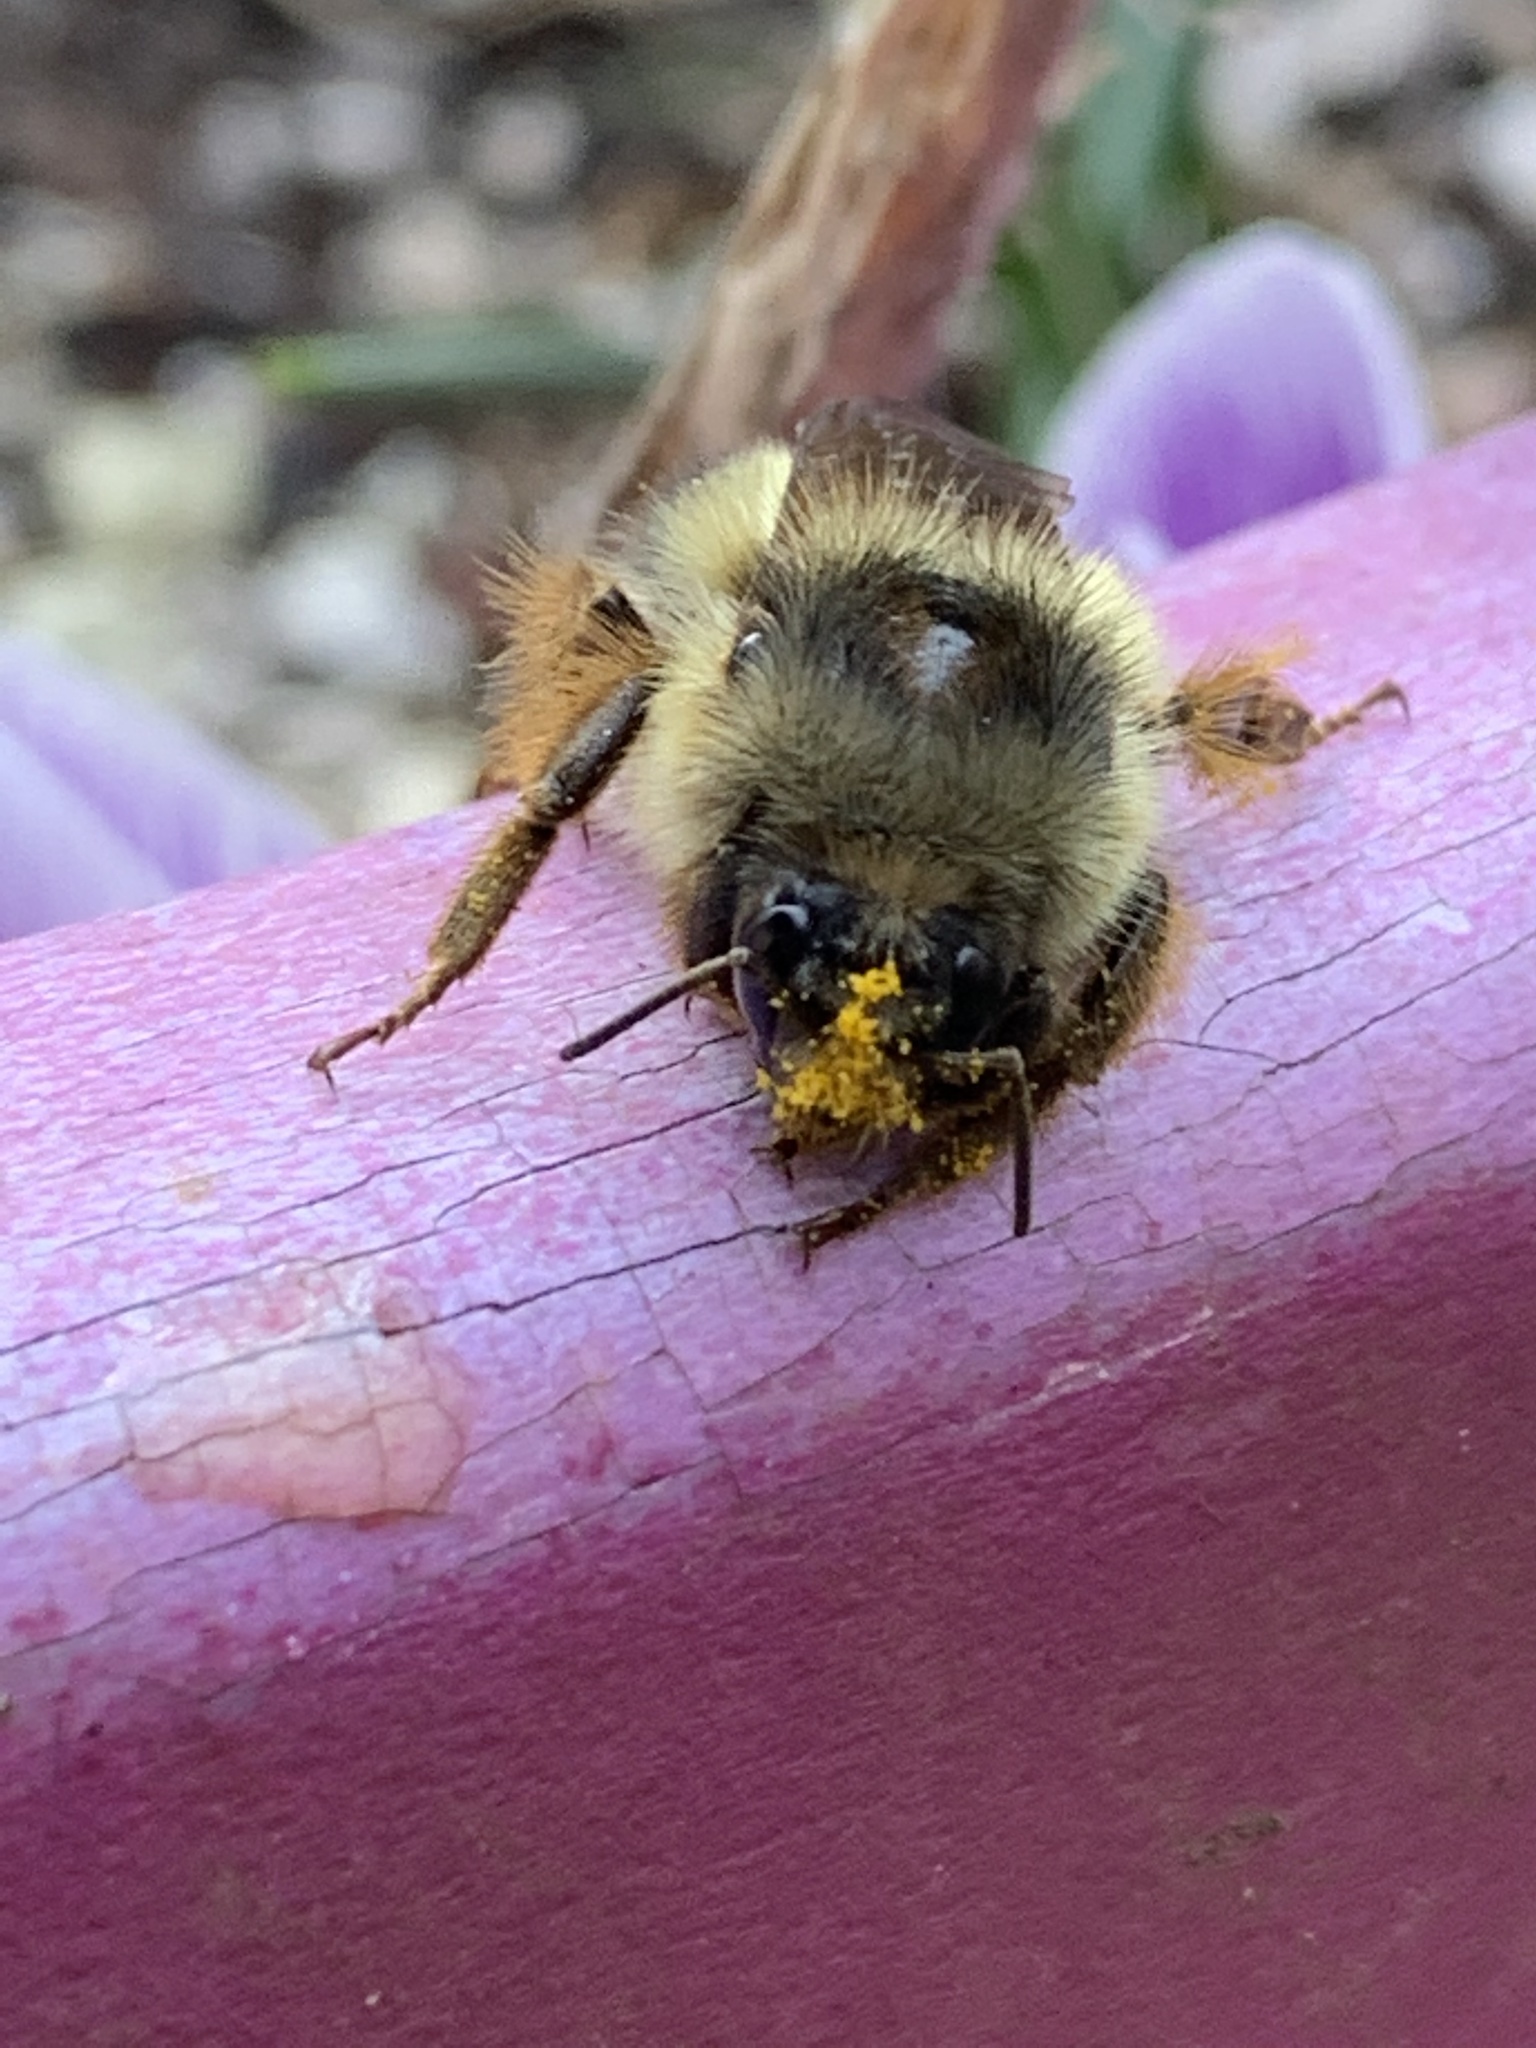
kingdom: Animalia
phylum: Arthropoda
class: Insecta
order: Hymenoptera
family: Apidae
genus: Bombus
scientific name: Bombus mixtus
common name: Fuzzy-horned bumble bee
